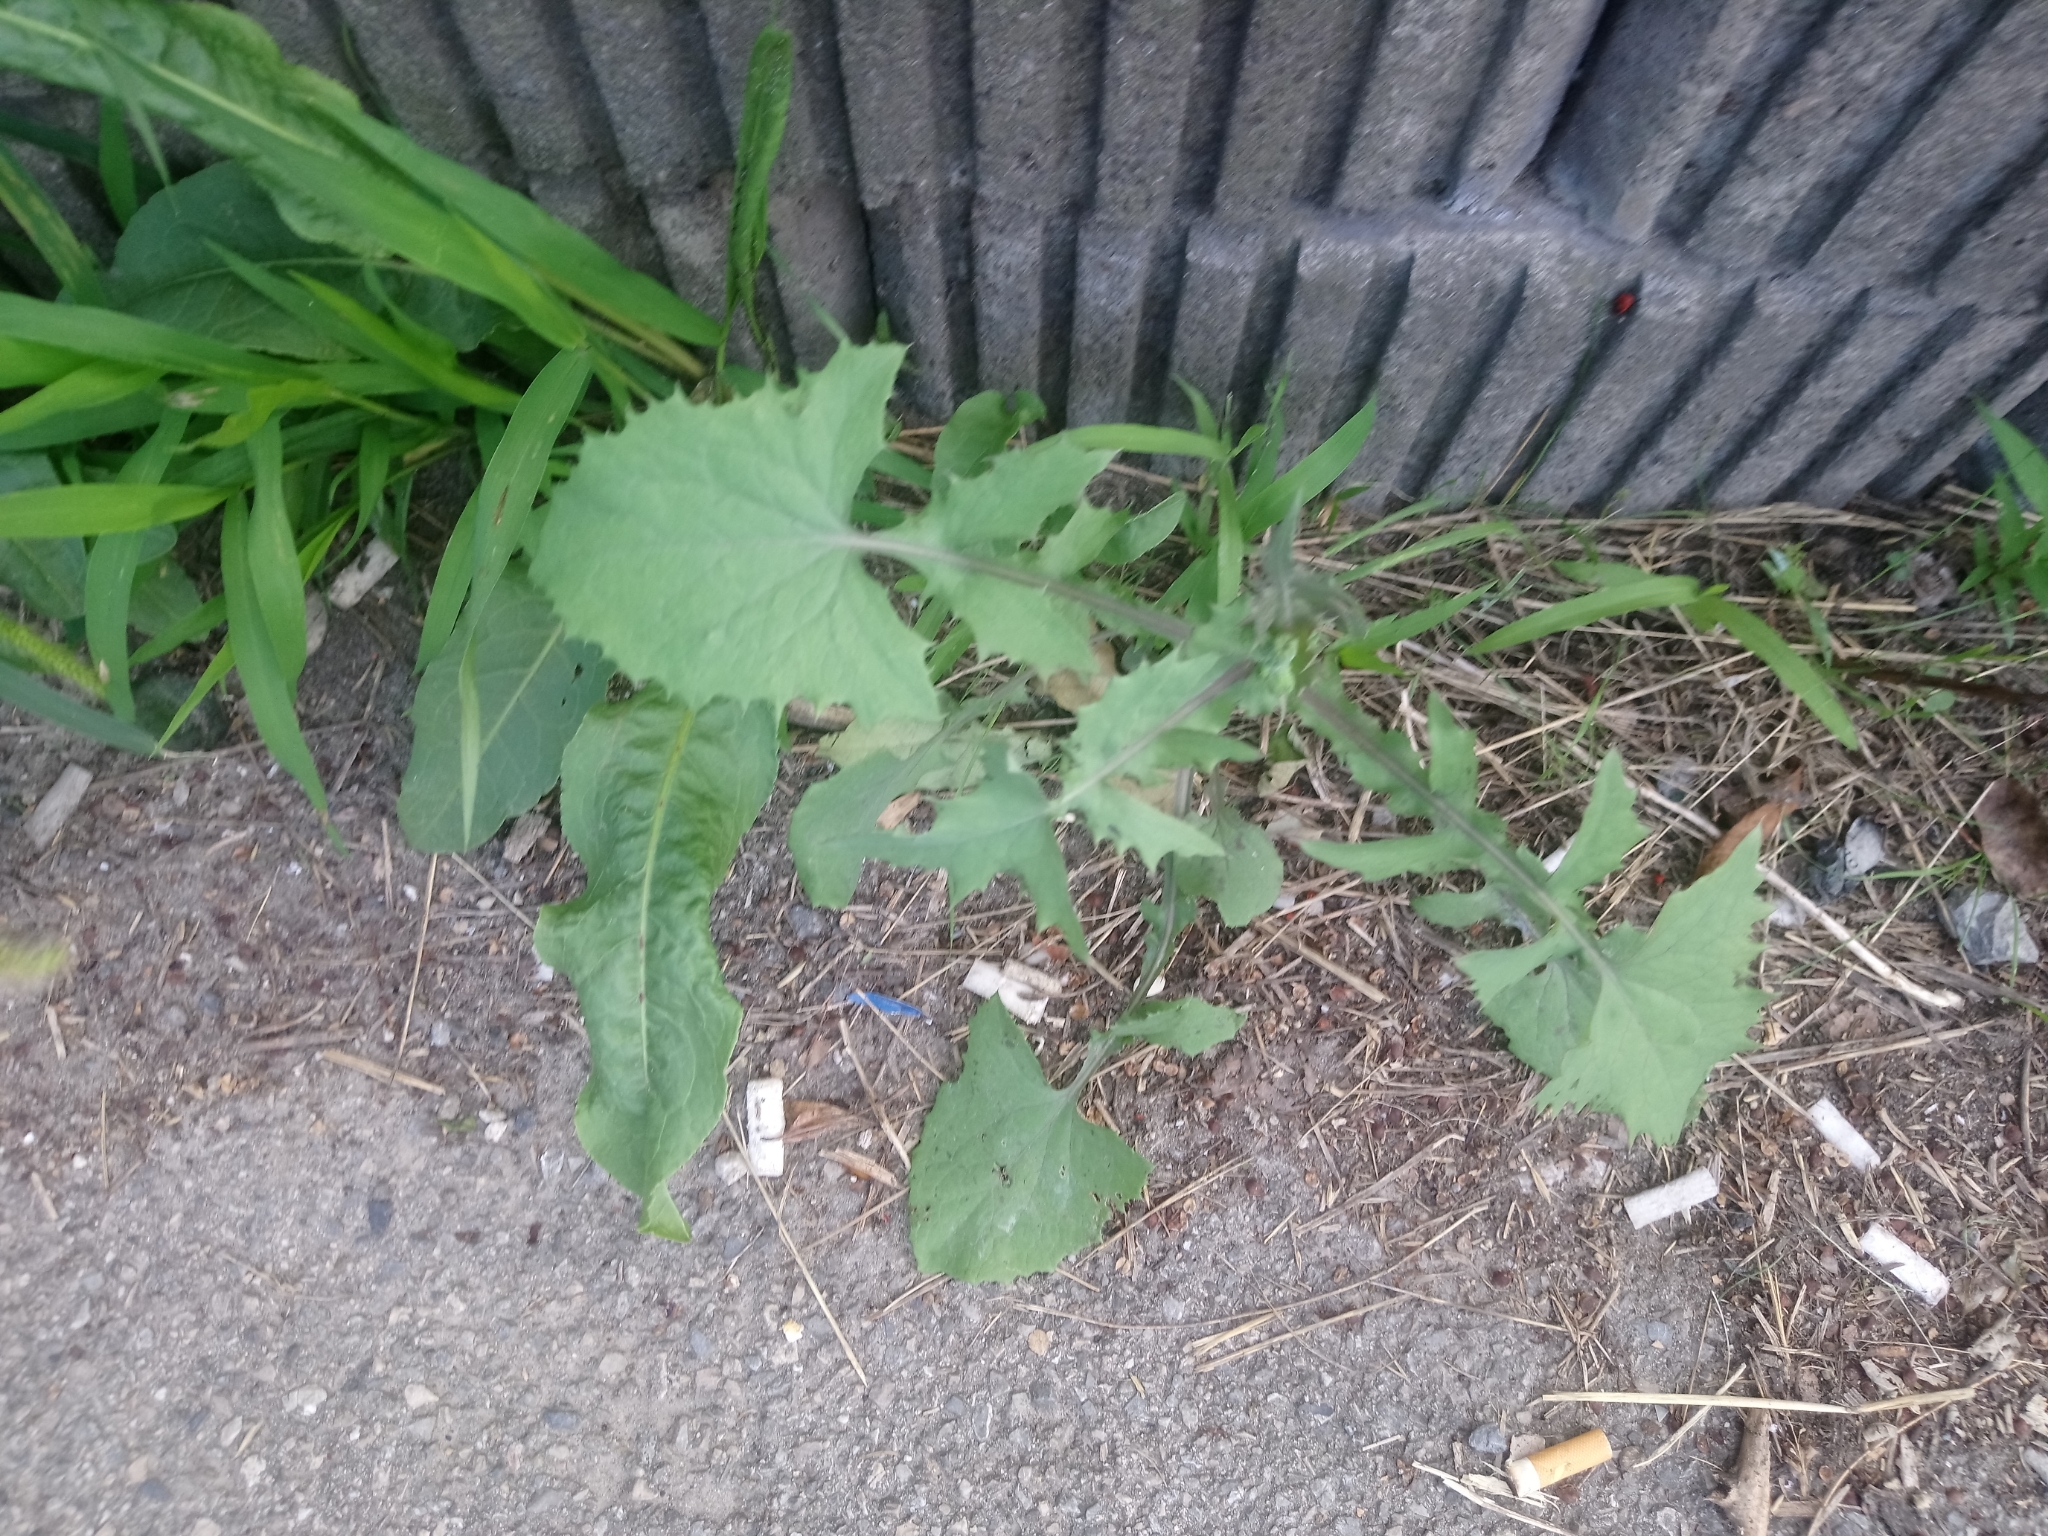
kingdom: Plantae
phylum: Tracheophyta
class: Magnoliopsida
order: Asterales
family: Asteraceae
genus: Sonchus
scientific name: Sonchus oleraceus
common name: Common sowthistle
